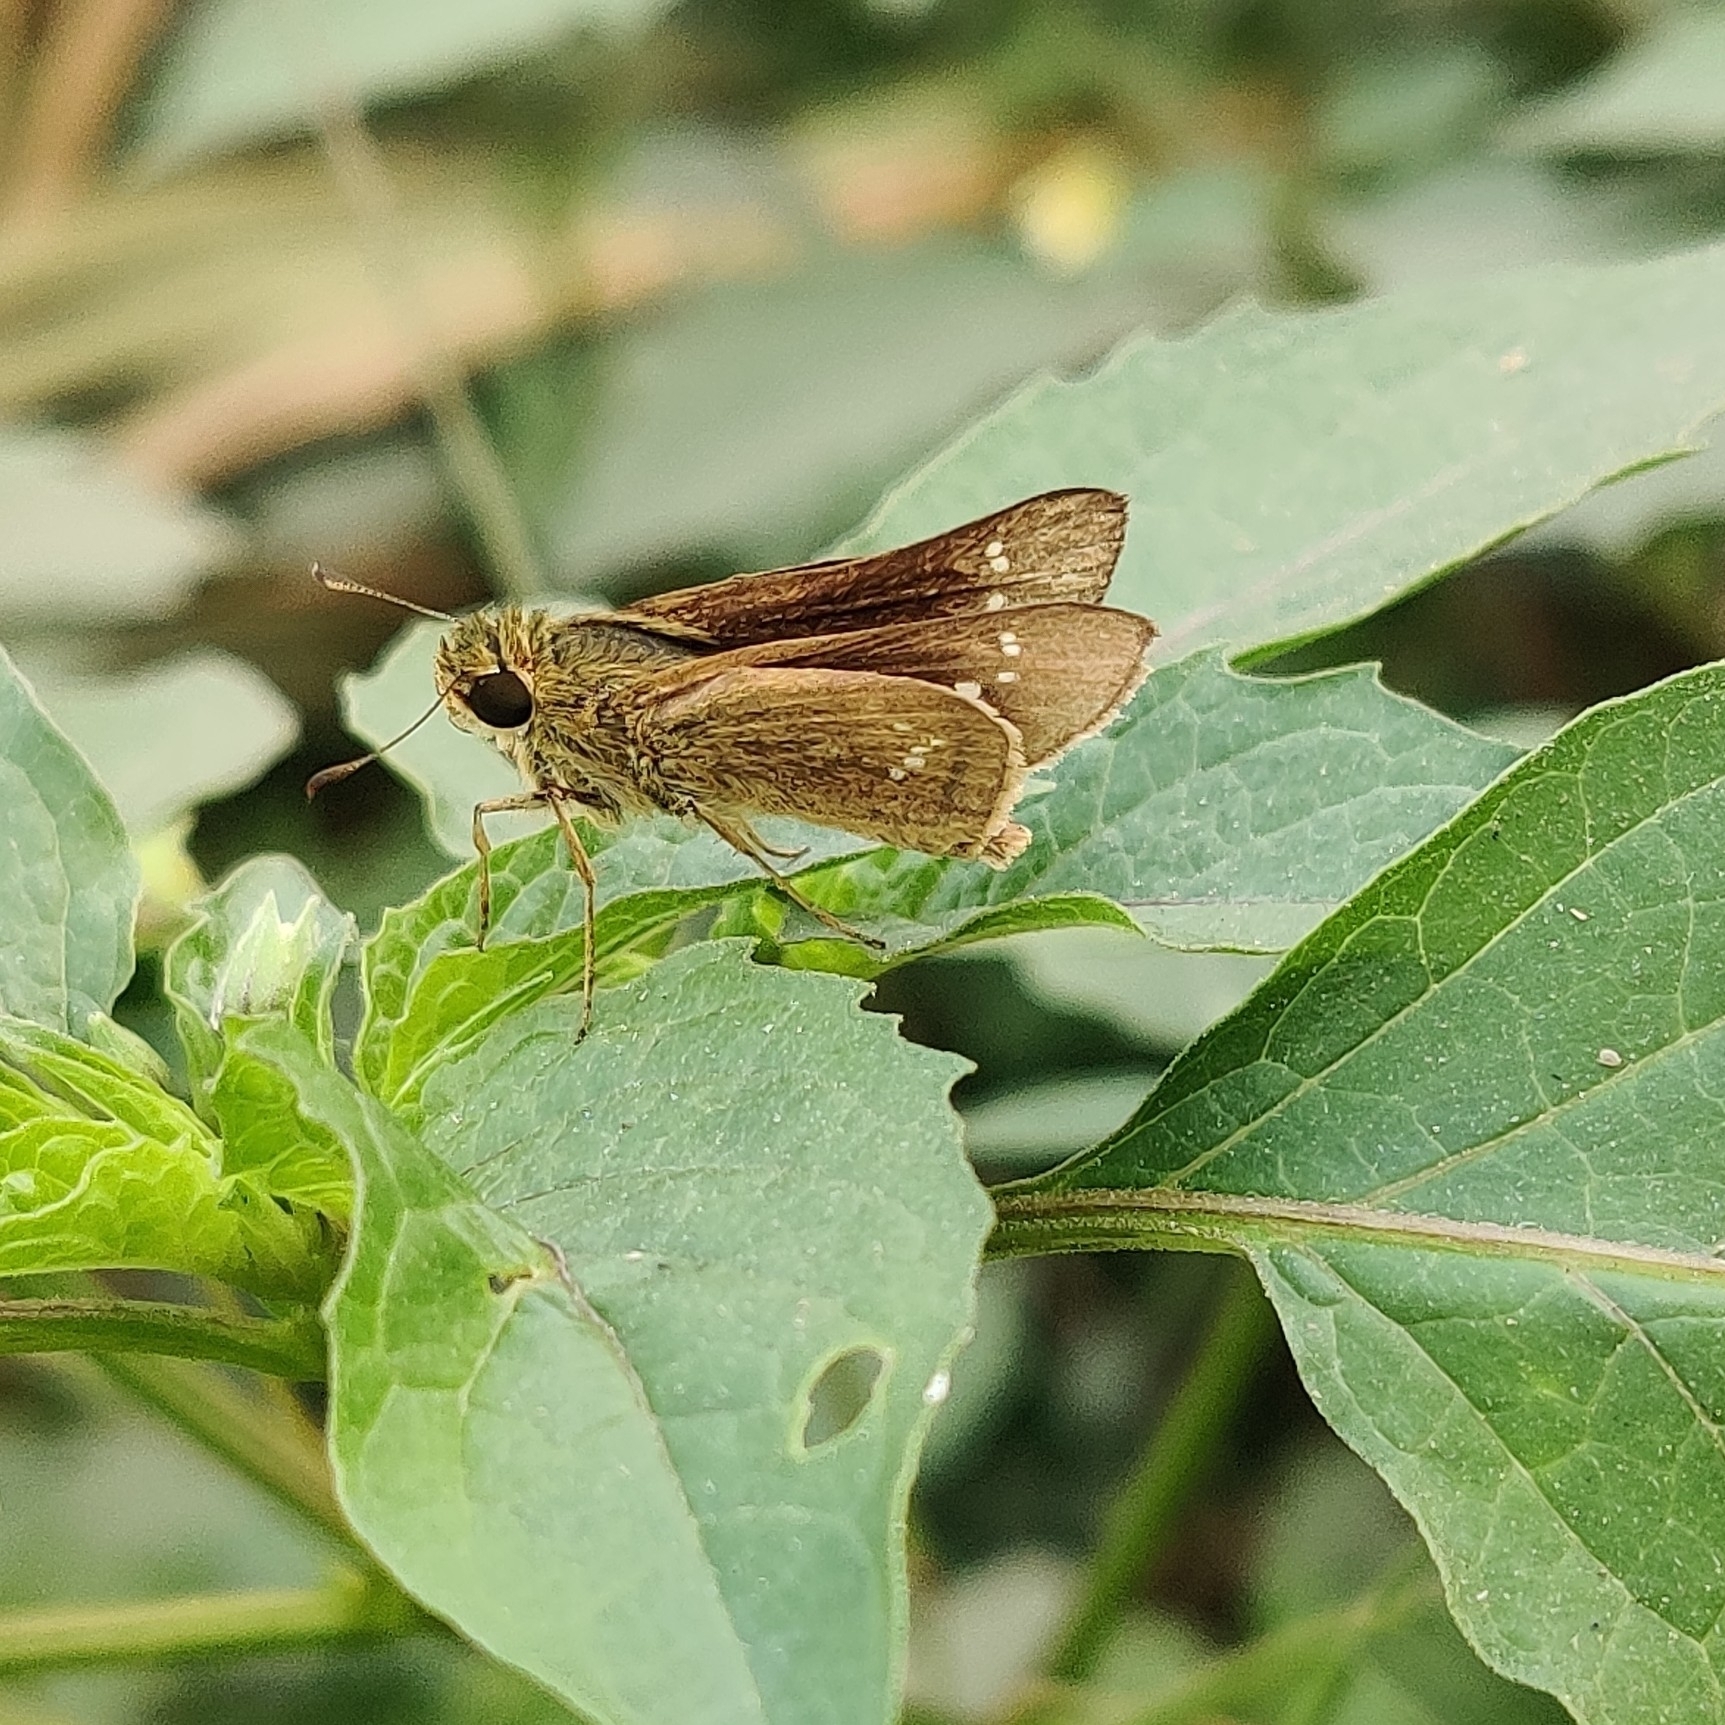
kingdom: Animalia
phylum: Arthropoda
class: Insecta
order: Lepidoptera
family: Hesperiidae
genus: Parnara
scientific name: Parnara naso
